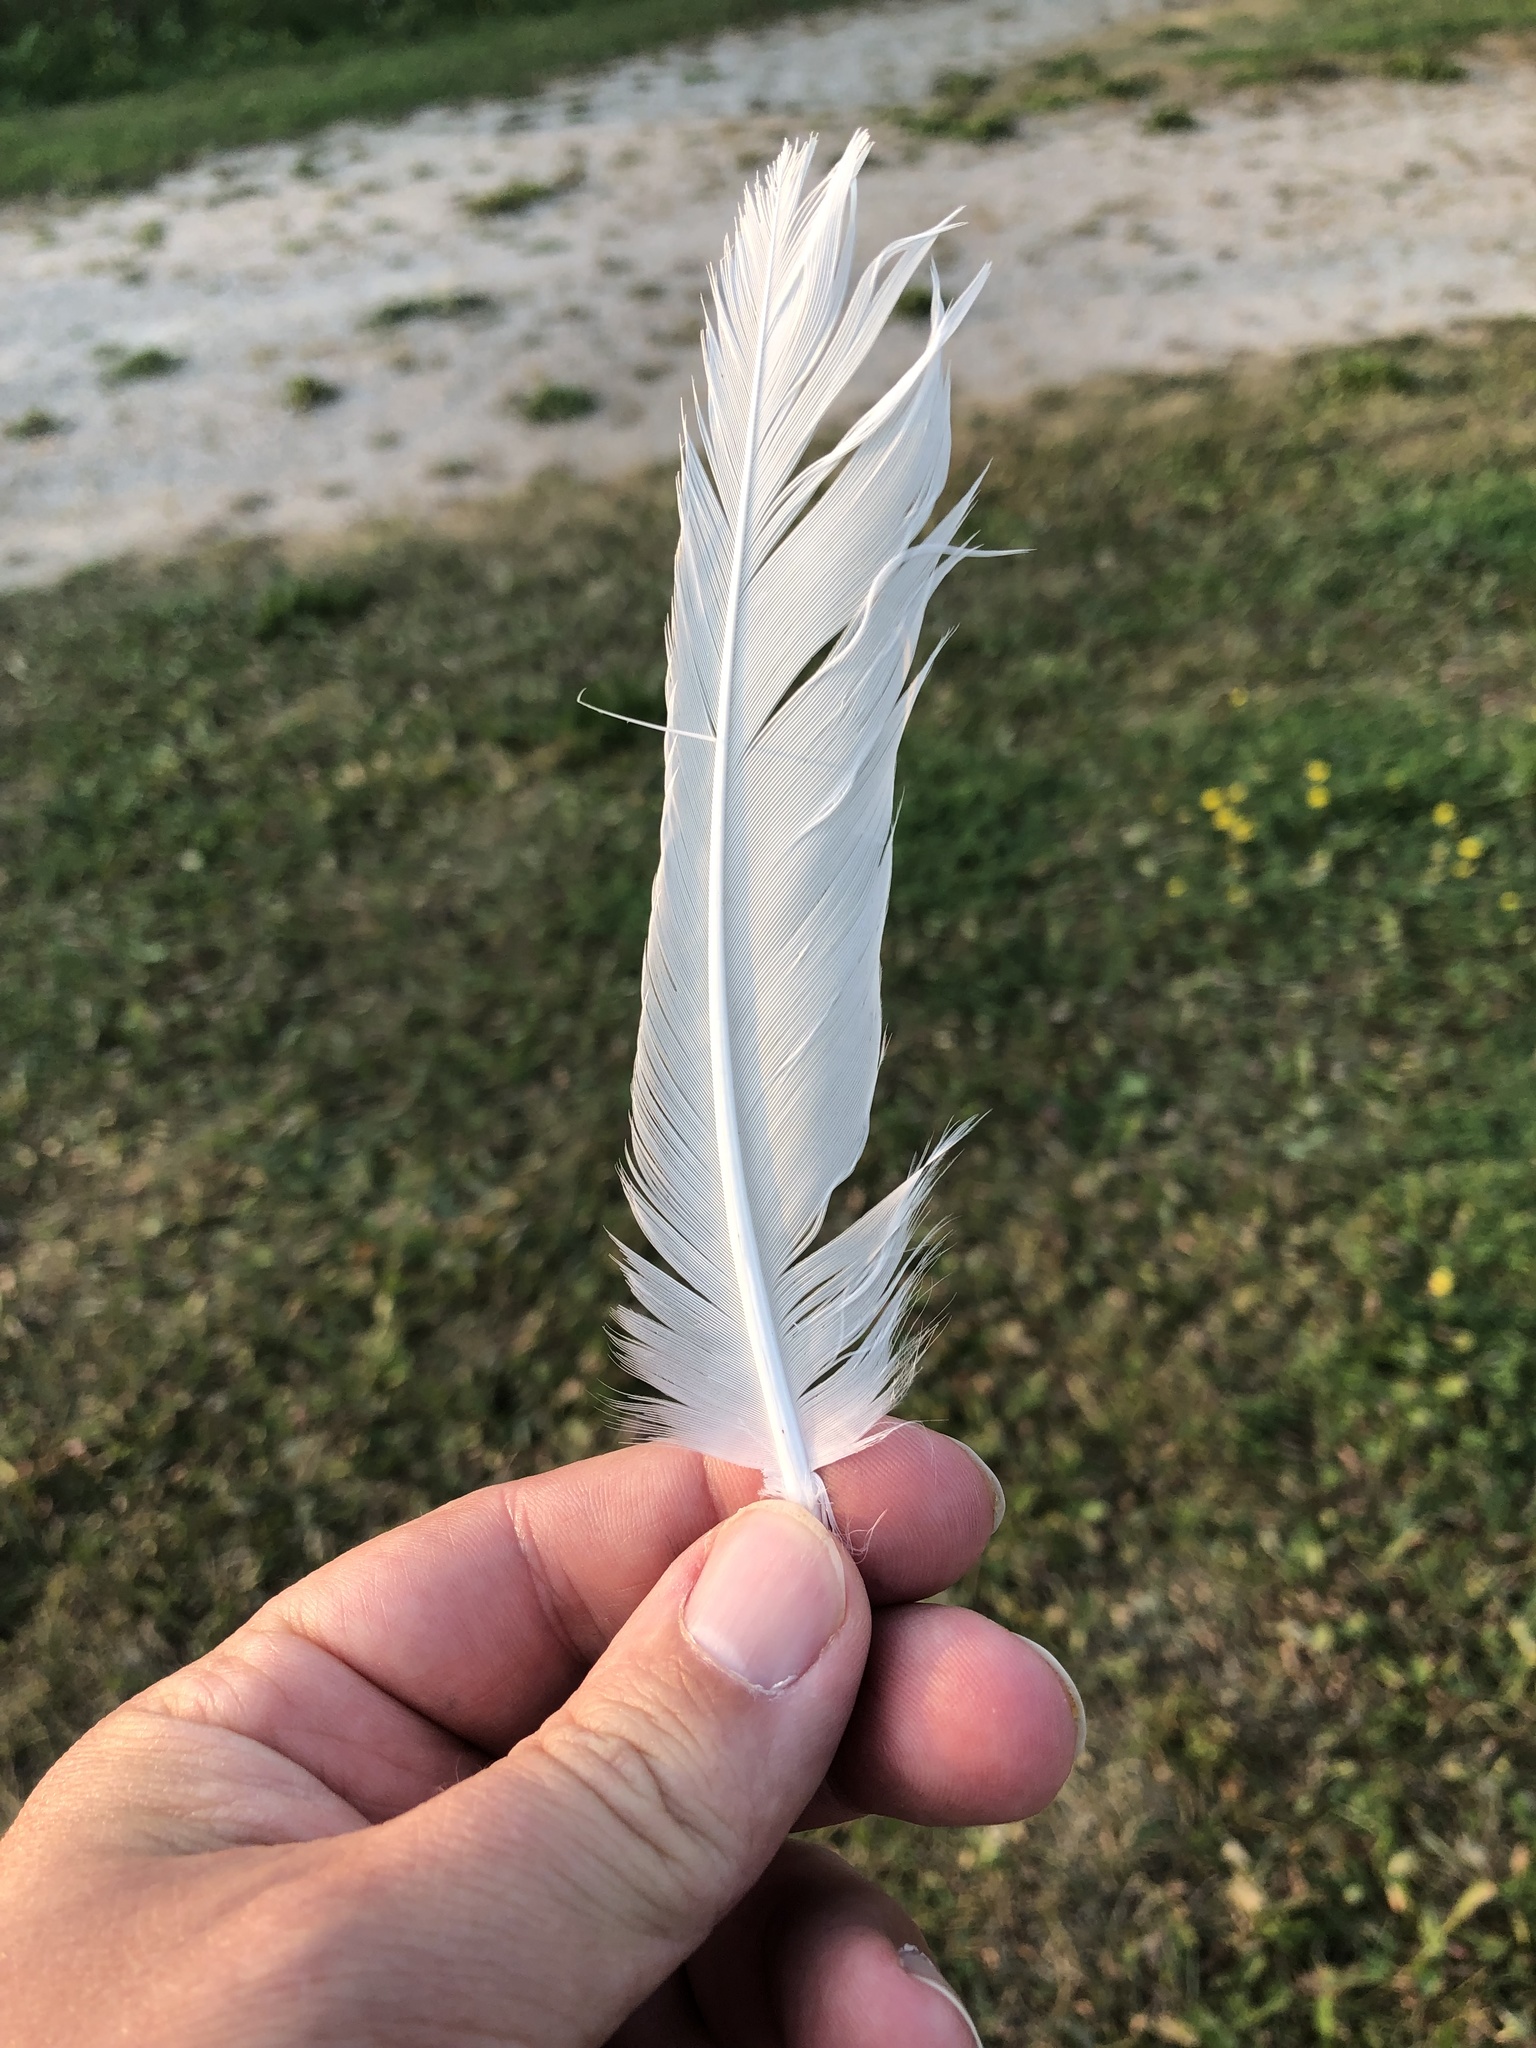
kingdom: Animalia
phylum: Chordata
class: Aves
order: Charadriiformes
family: Laridae
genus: Larus
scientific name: Larus delawarensis
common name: Ring-billed gull
